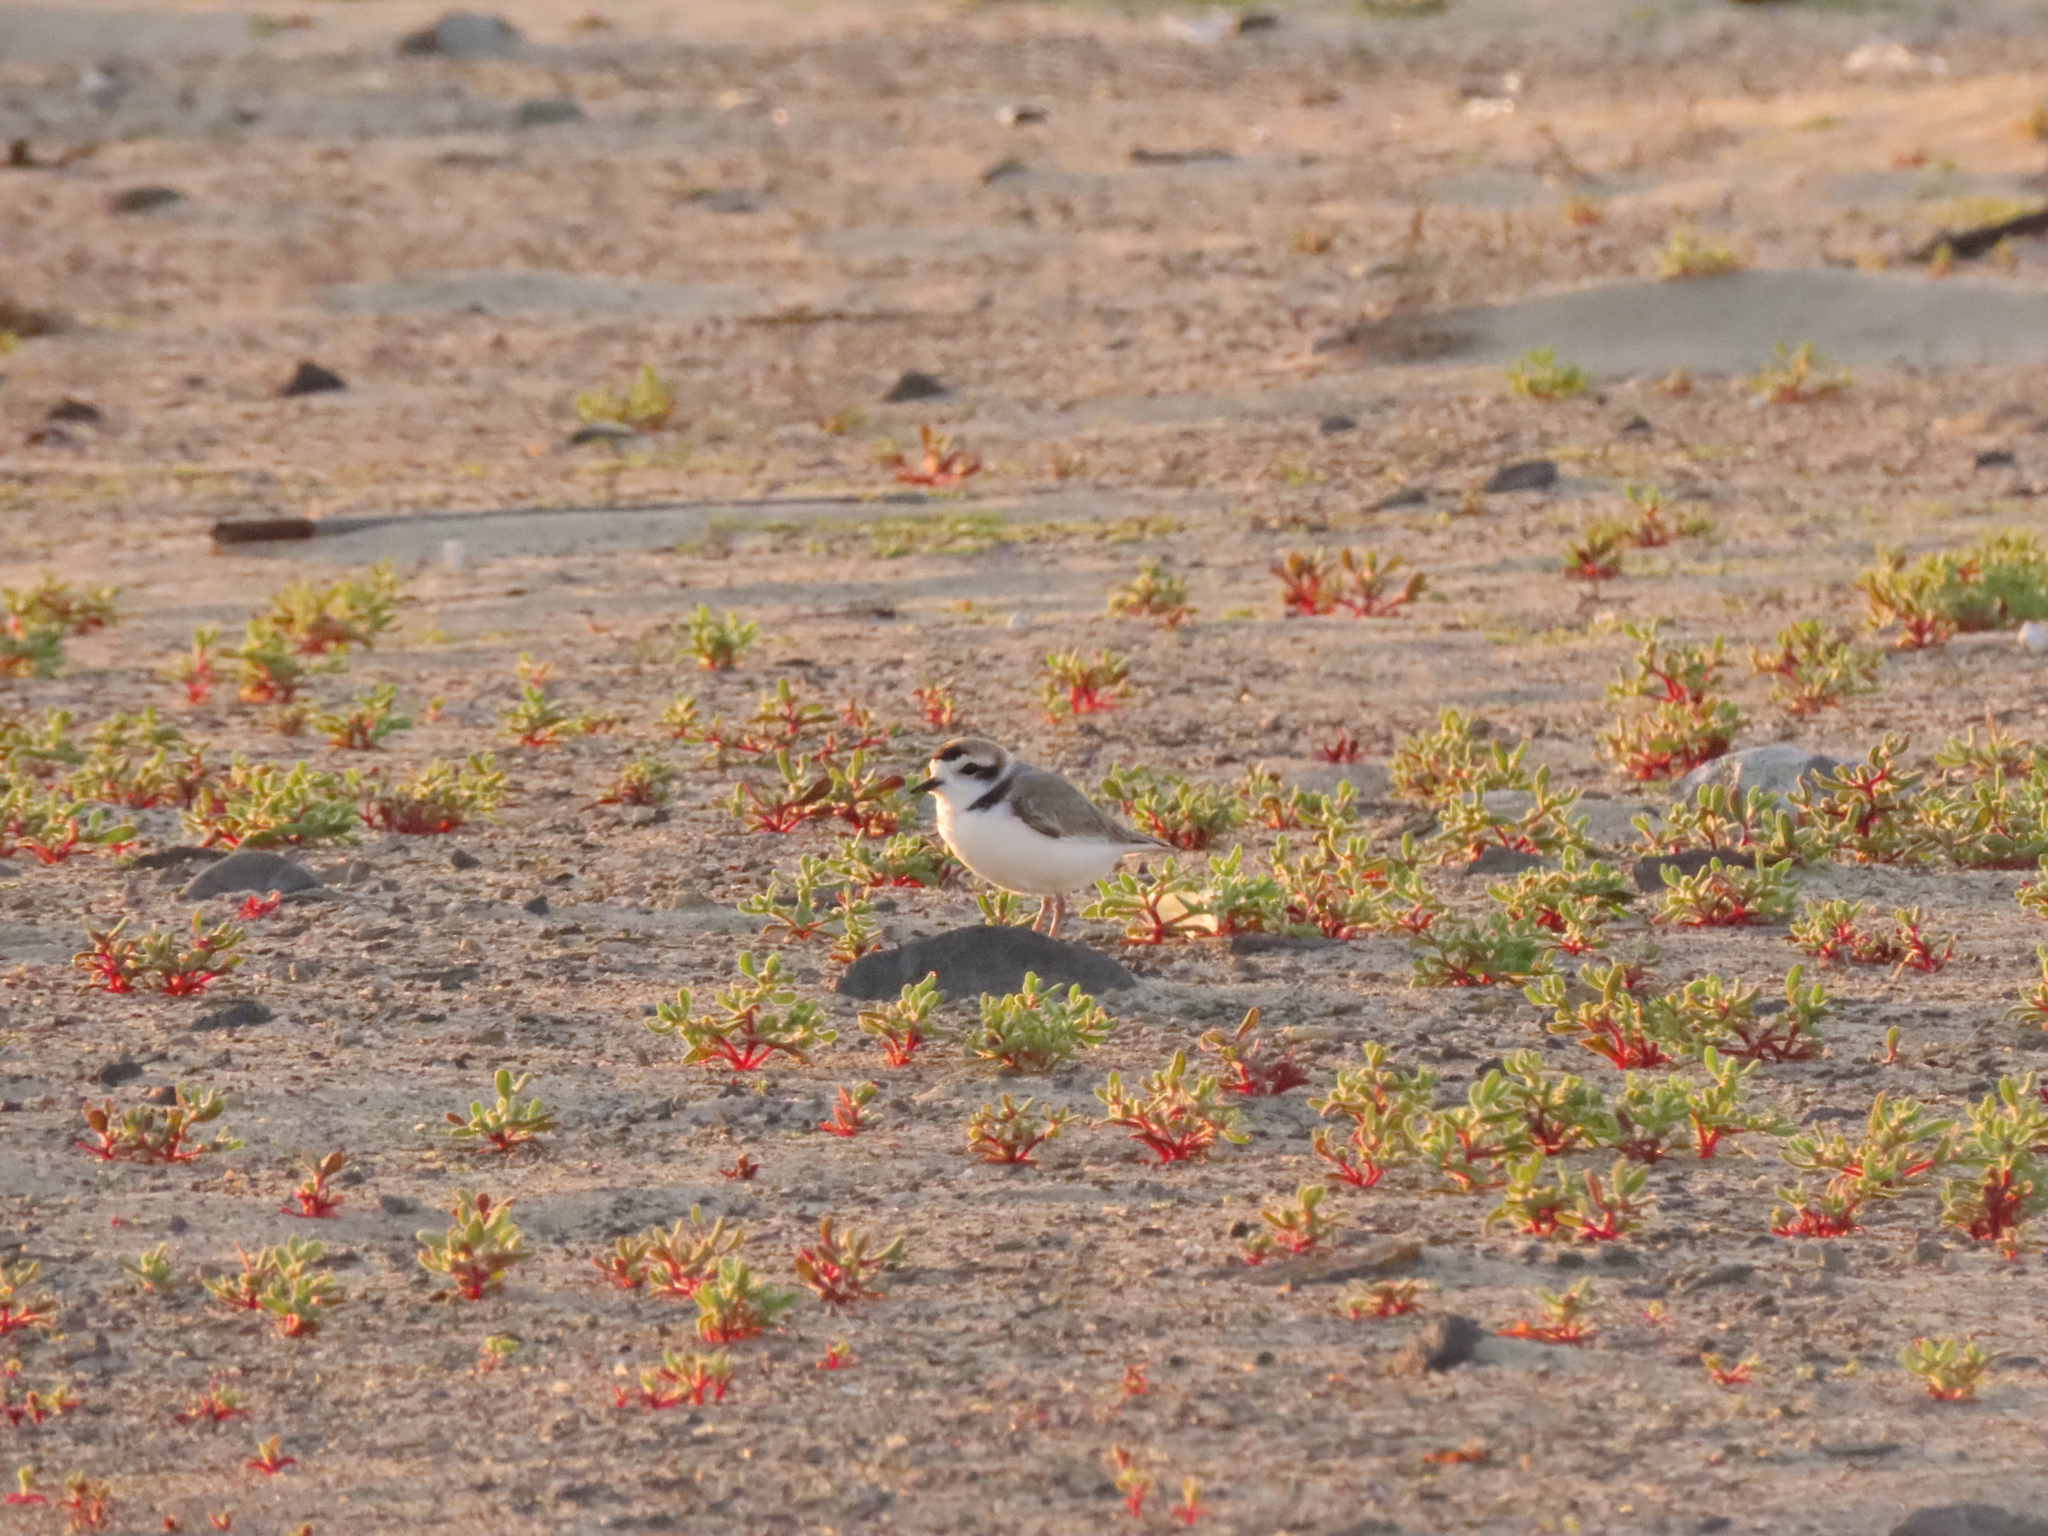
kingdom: Animalia
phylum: Chordata
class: Aves
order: Charadriiformes
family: Charadriidae
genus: Anarhynchus
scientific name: Anarhynchus
